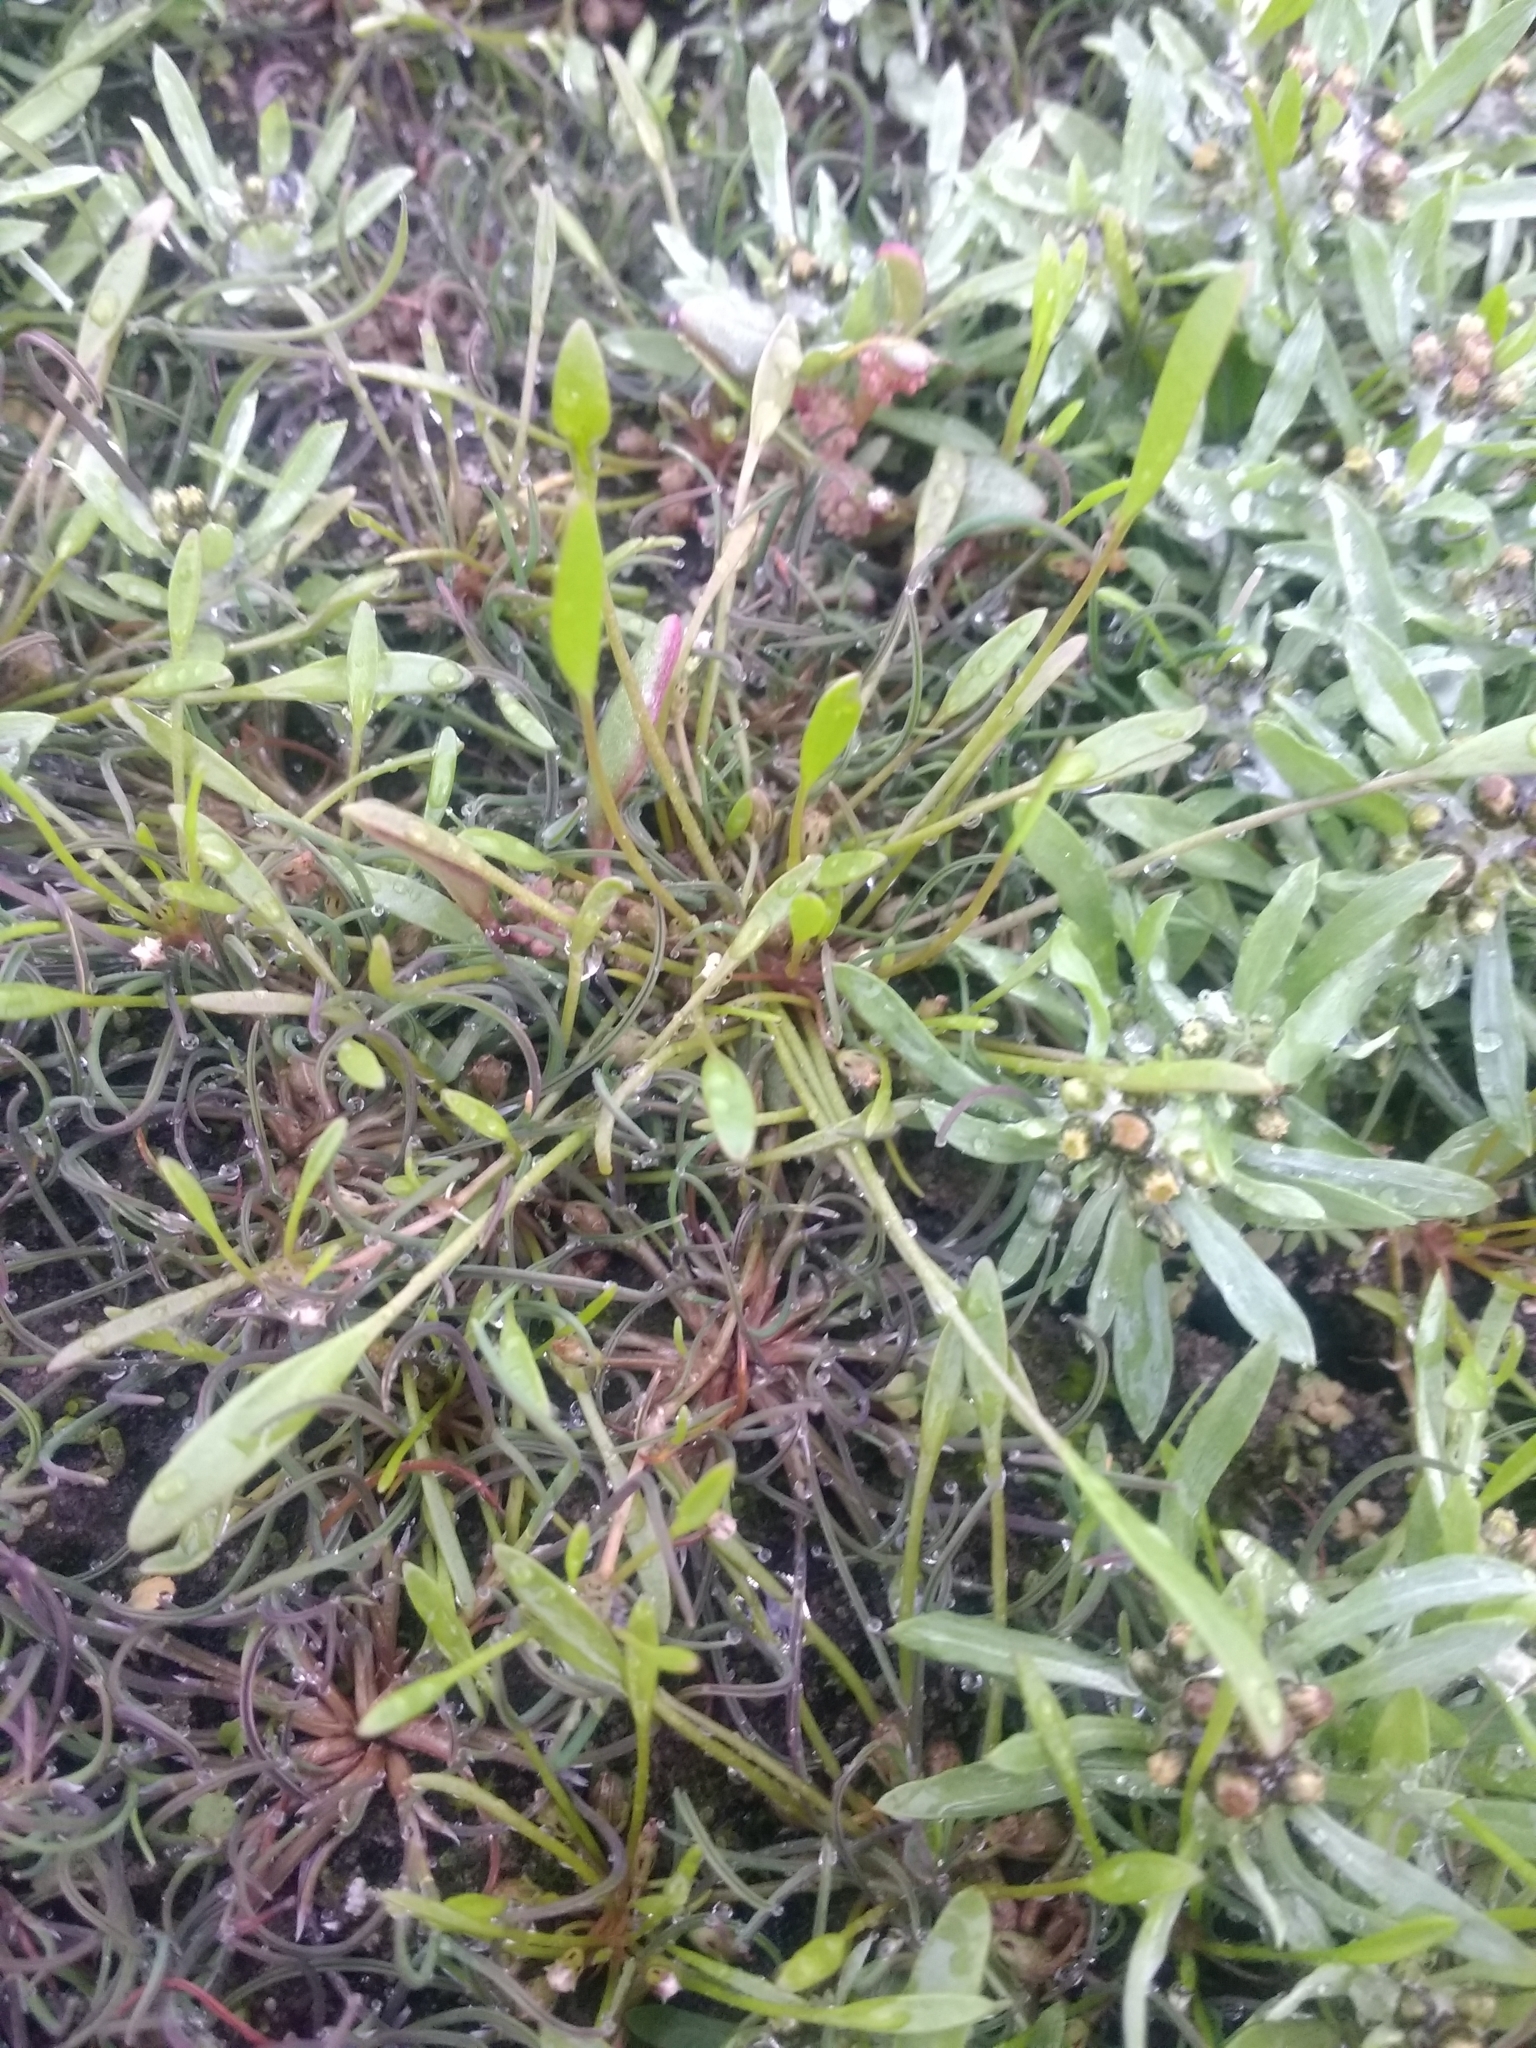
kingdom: Plantae
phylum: Tracheophyta
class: Magnoliopsida
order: Lamiales
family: Scrophulariaceae
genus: Limosella
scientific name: Limosella aquatica
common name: Mudwort
